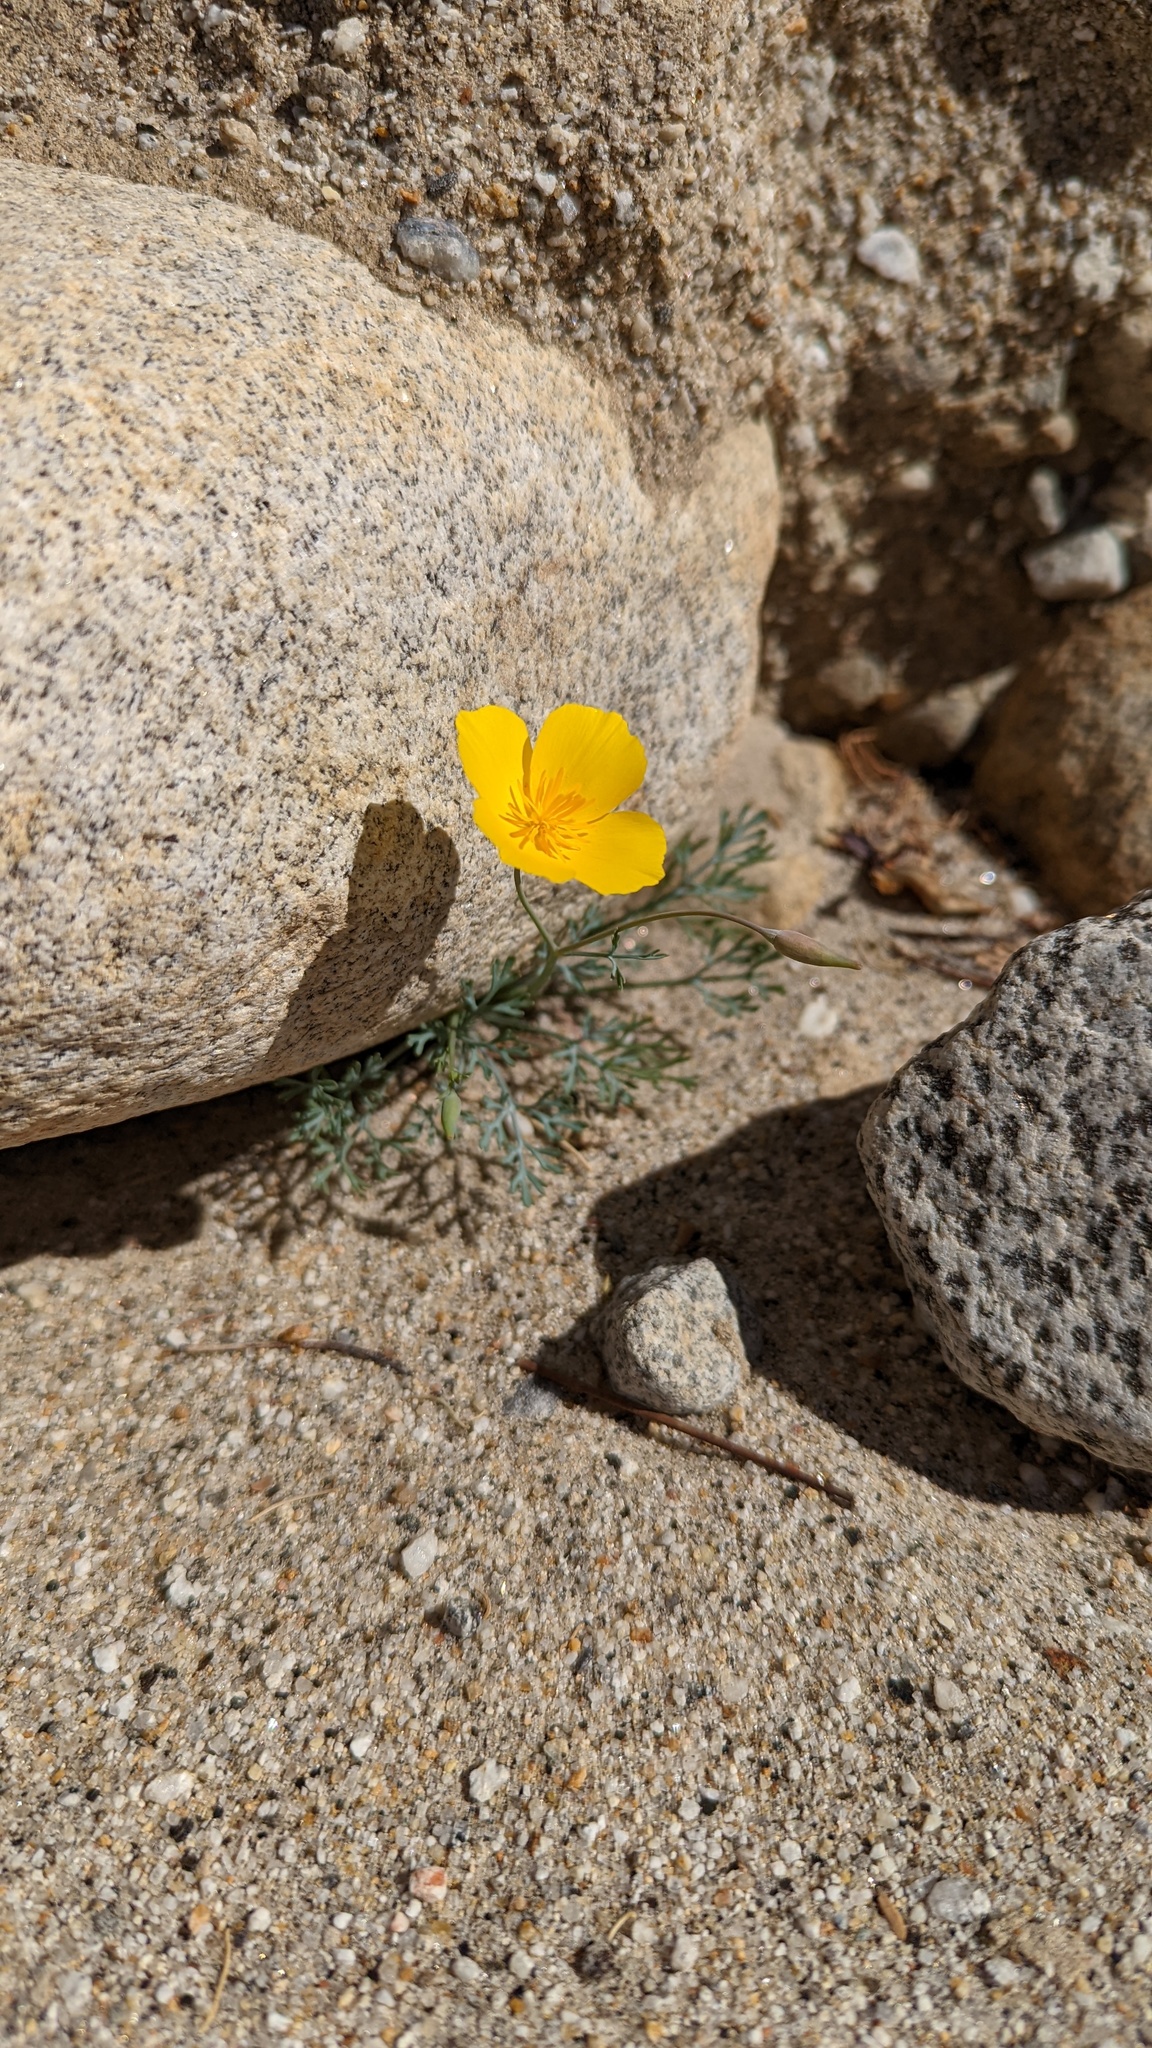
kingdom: Plantae
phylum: Tracheophyta
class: Magnoliopsida
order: Ranunculales
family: Papaveraceae
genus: Eschscholzia
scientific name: Eschscholzia parishii
